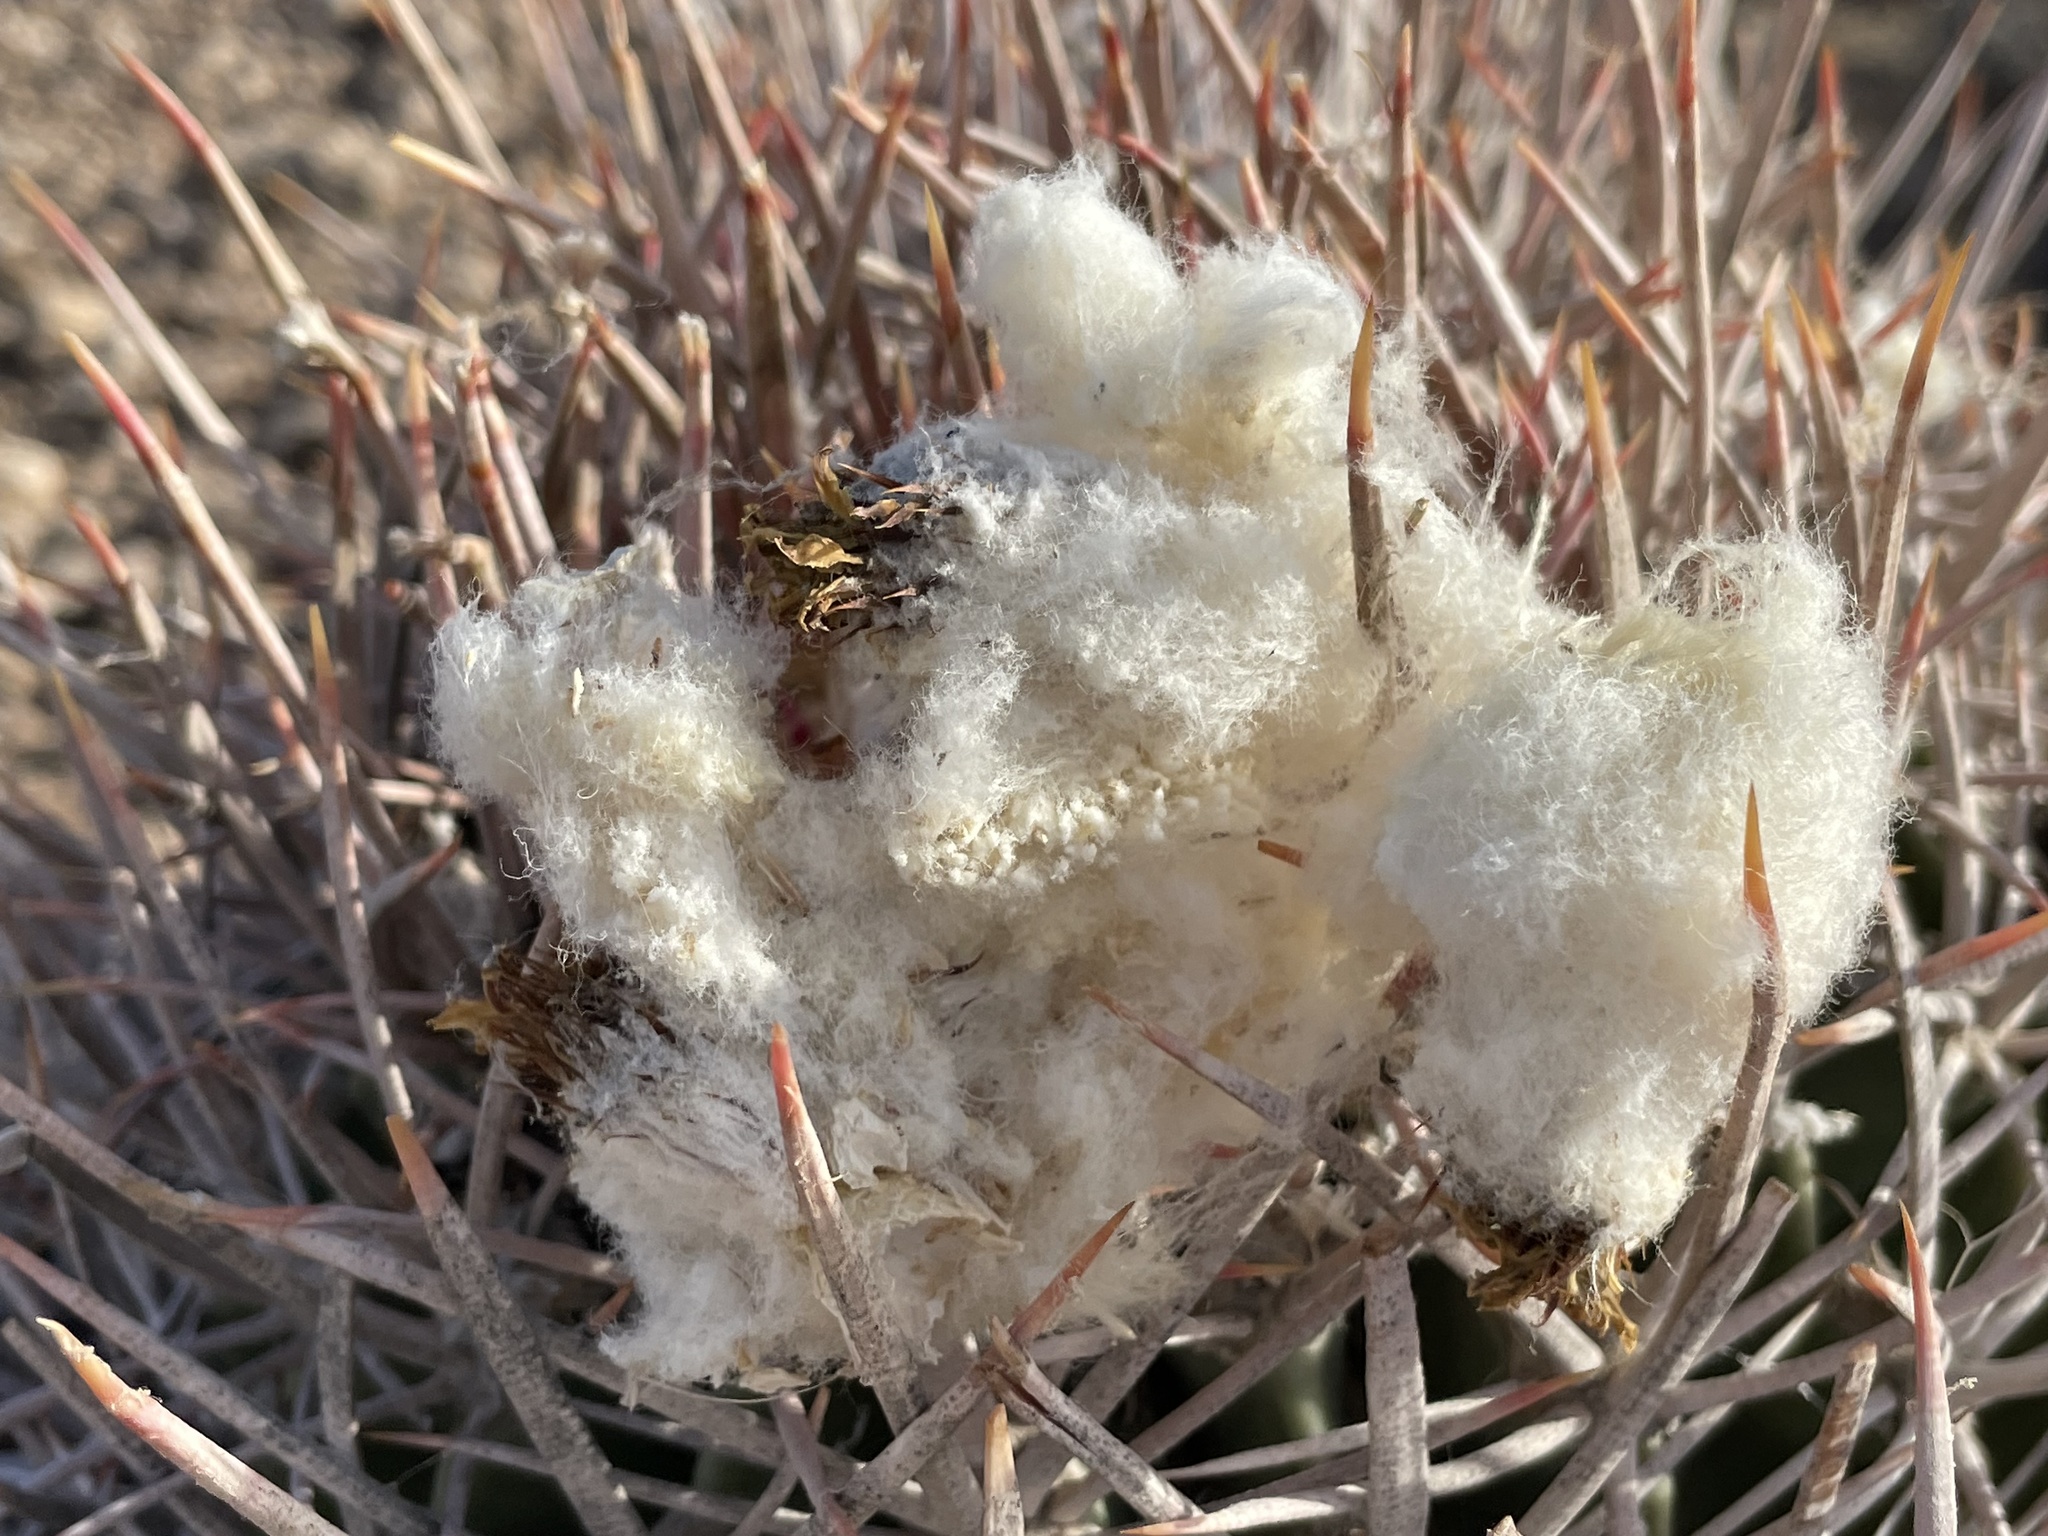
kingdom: Plantae
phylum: Tracheophyta
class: Magnoliopsida
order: Caryophyllales
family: Cactaceae
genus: Echinocactus
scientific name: Echinocactus polycephalus
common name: Cottontop cactus
